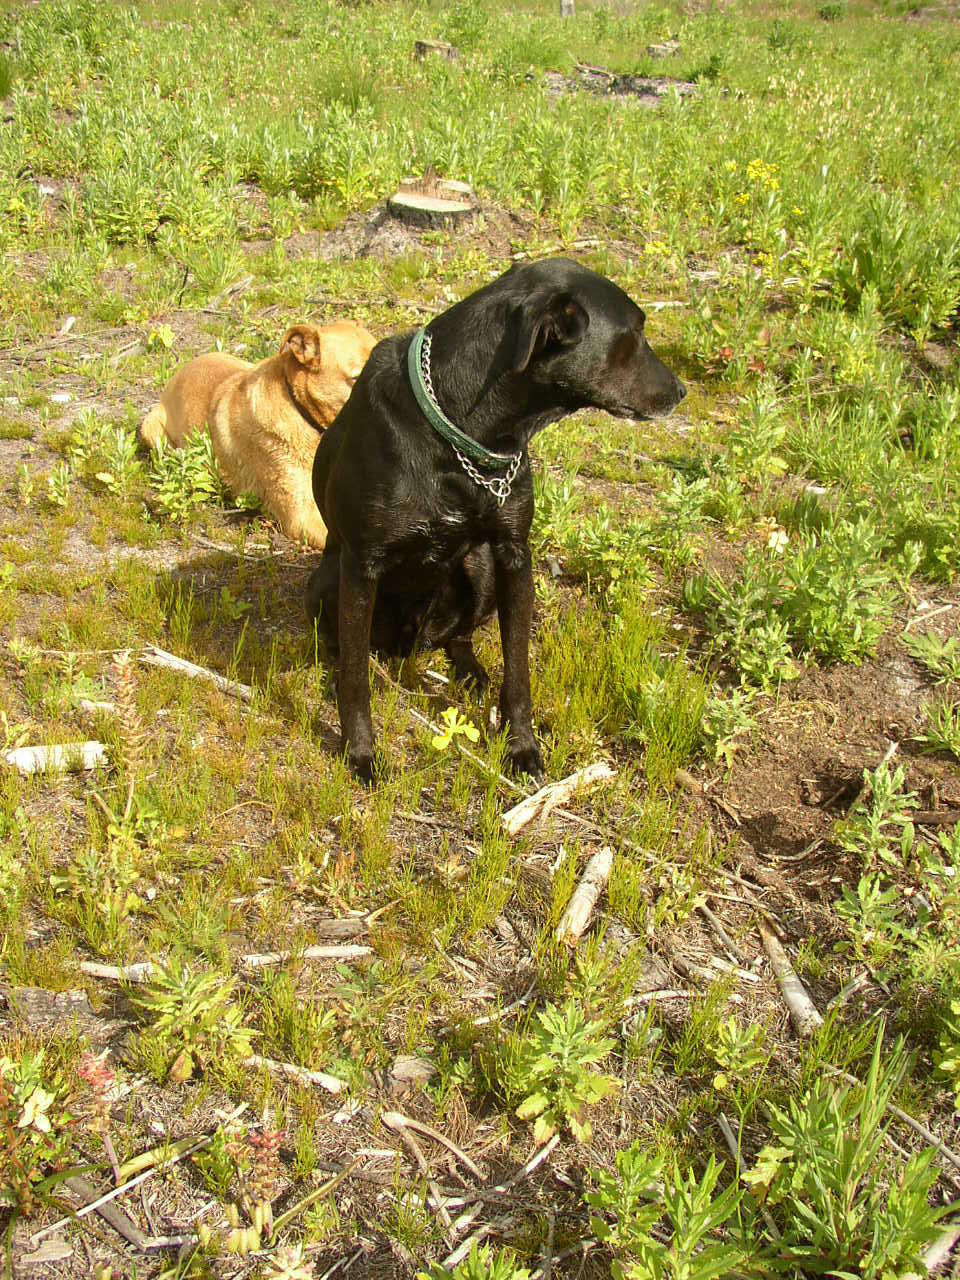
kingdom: Plantae
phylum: Tracheophyta
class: Magnoliopsida
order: Asterales
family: Asteraceae
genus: Senecio
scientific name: Senecio pterophorus
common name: Shoddy ragwort
